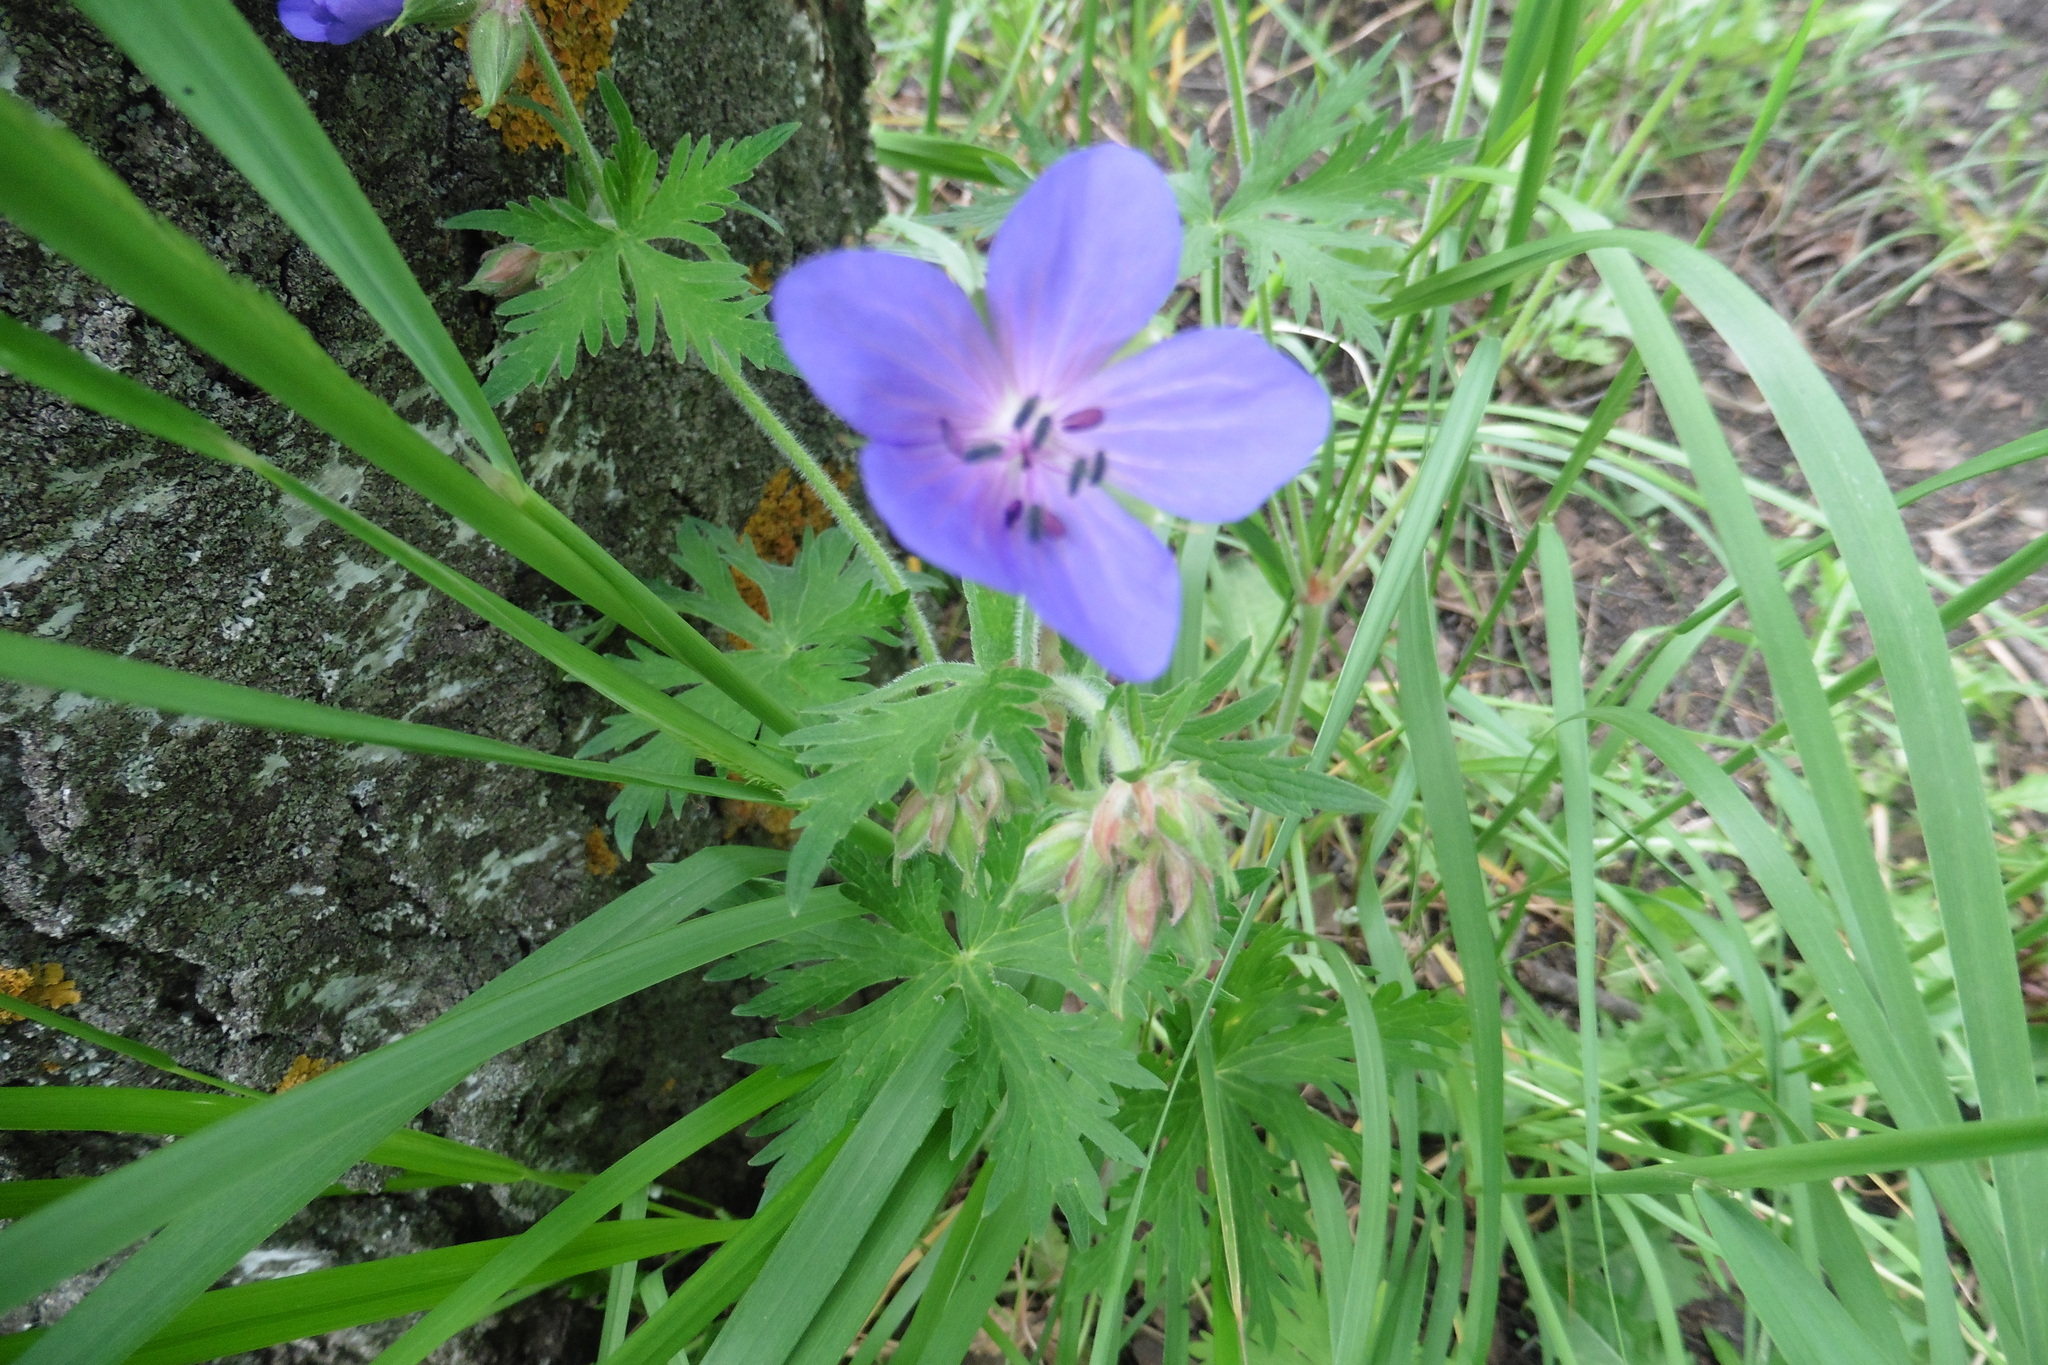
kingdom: Plantae
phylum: Tracheophyta
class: Magnoliopsida
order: Geraniales
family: Geraniaceae
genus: Geranium
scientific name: Geranium pratense
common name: Meadow crane's-bill
